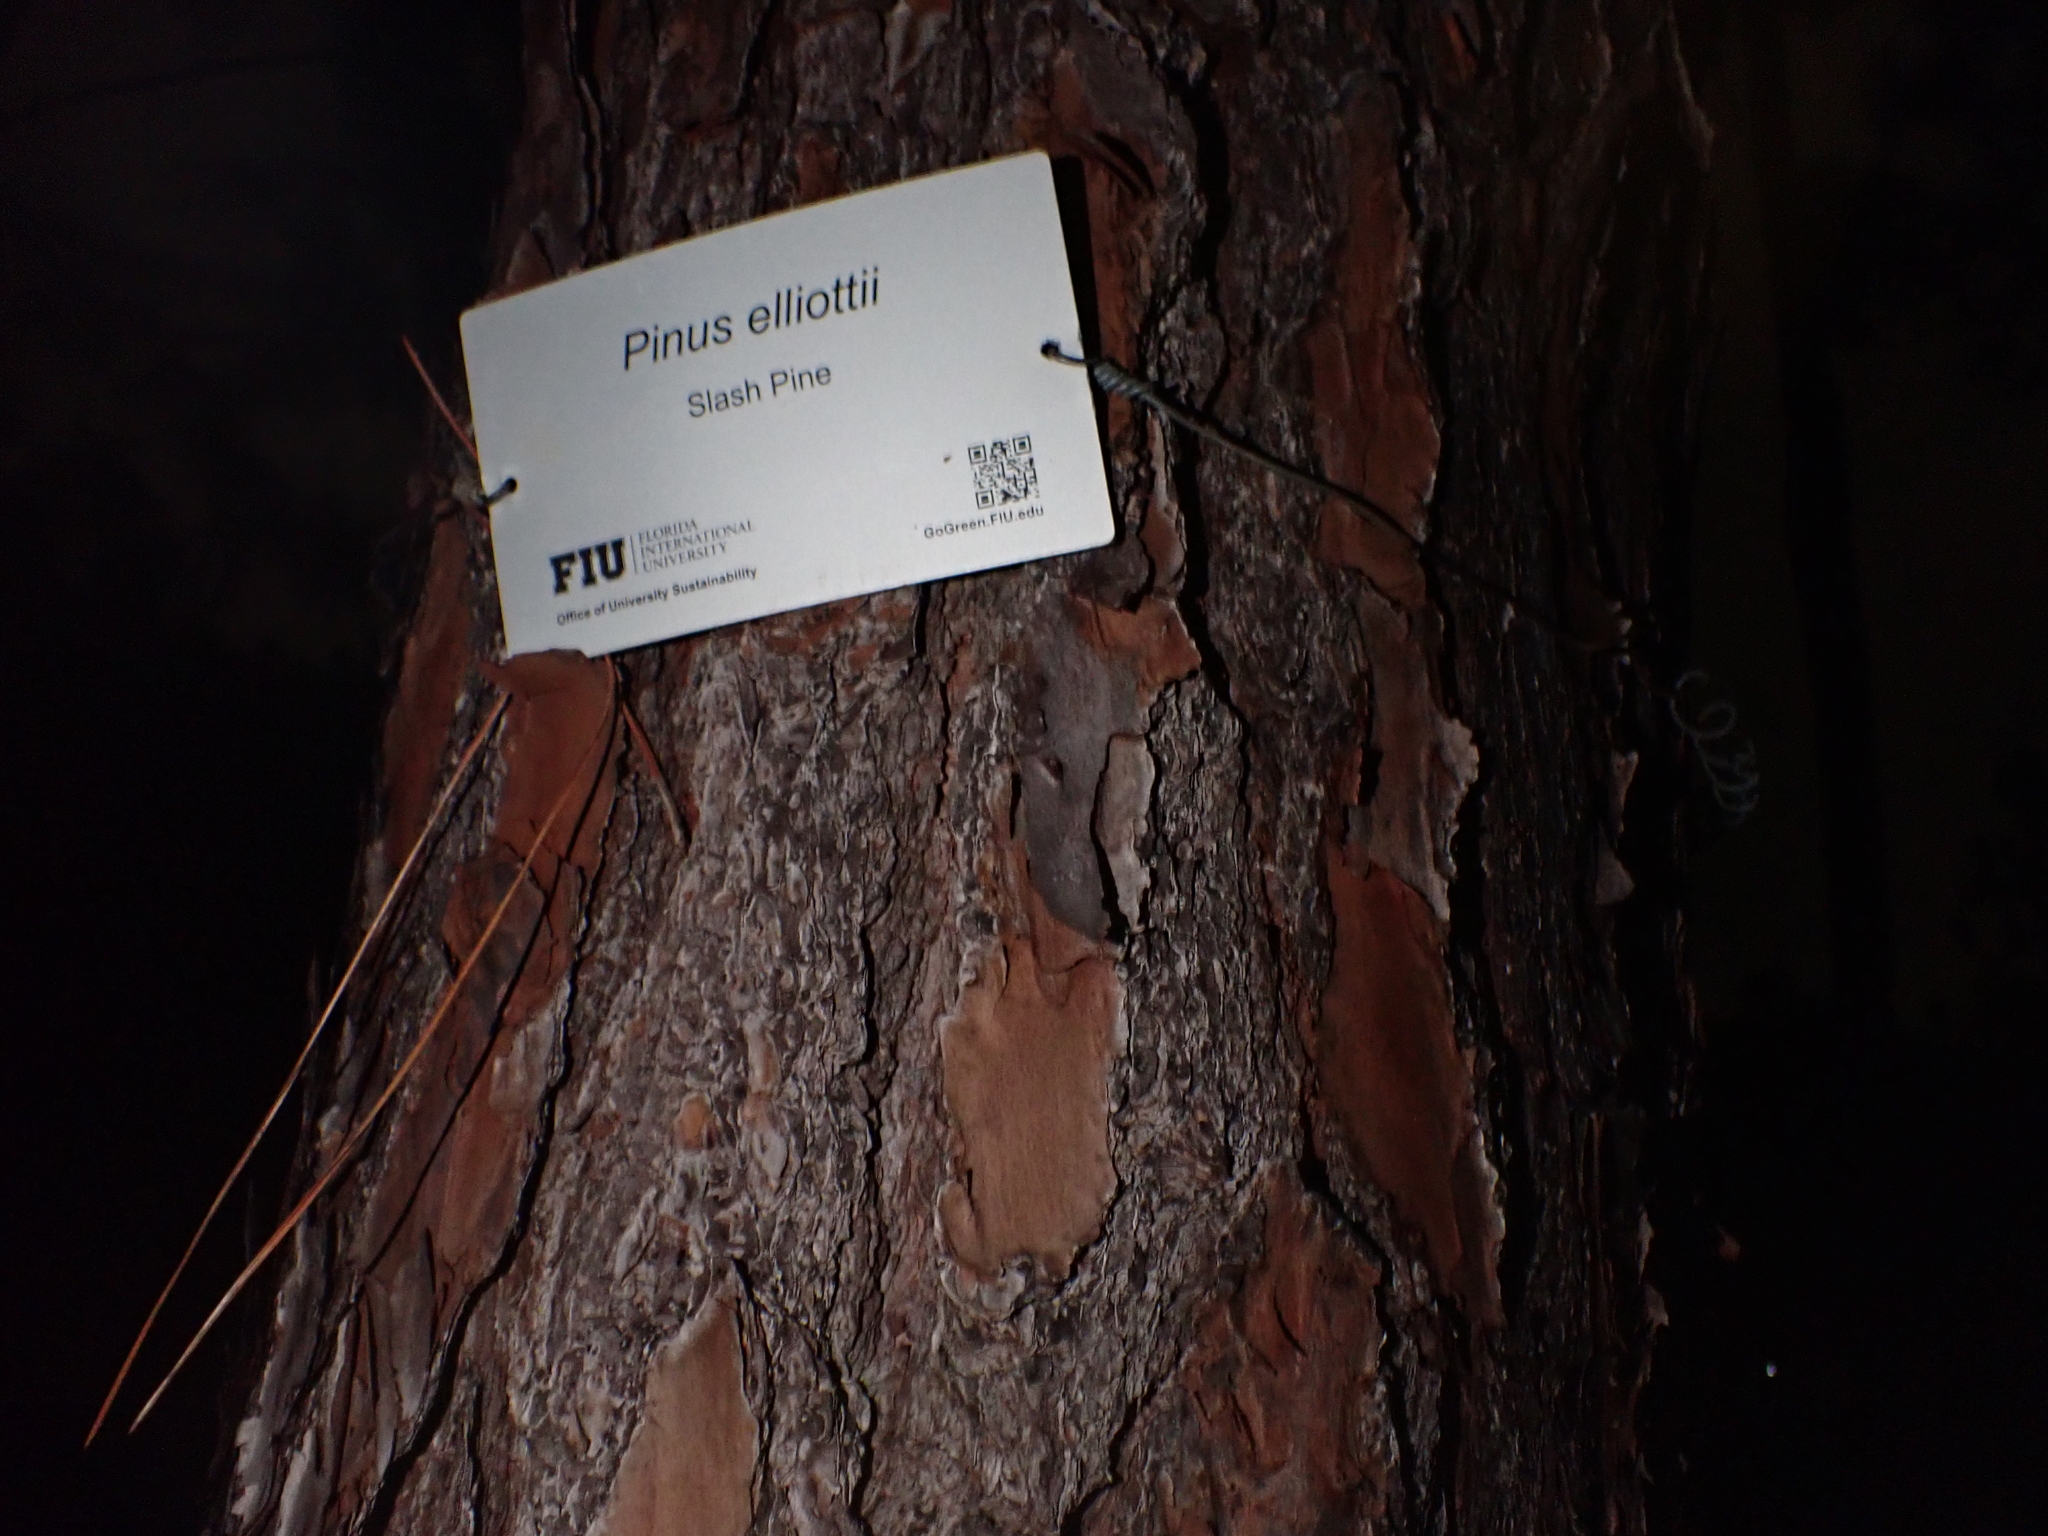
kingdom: Plantae
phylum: Tracheophyta
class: Pinopsida
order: Pinales
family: Pinaceae
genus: Pinus
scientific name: Pinus elliottii
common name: Slash pine
